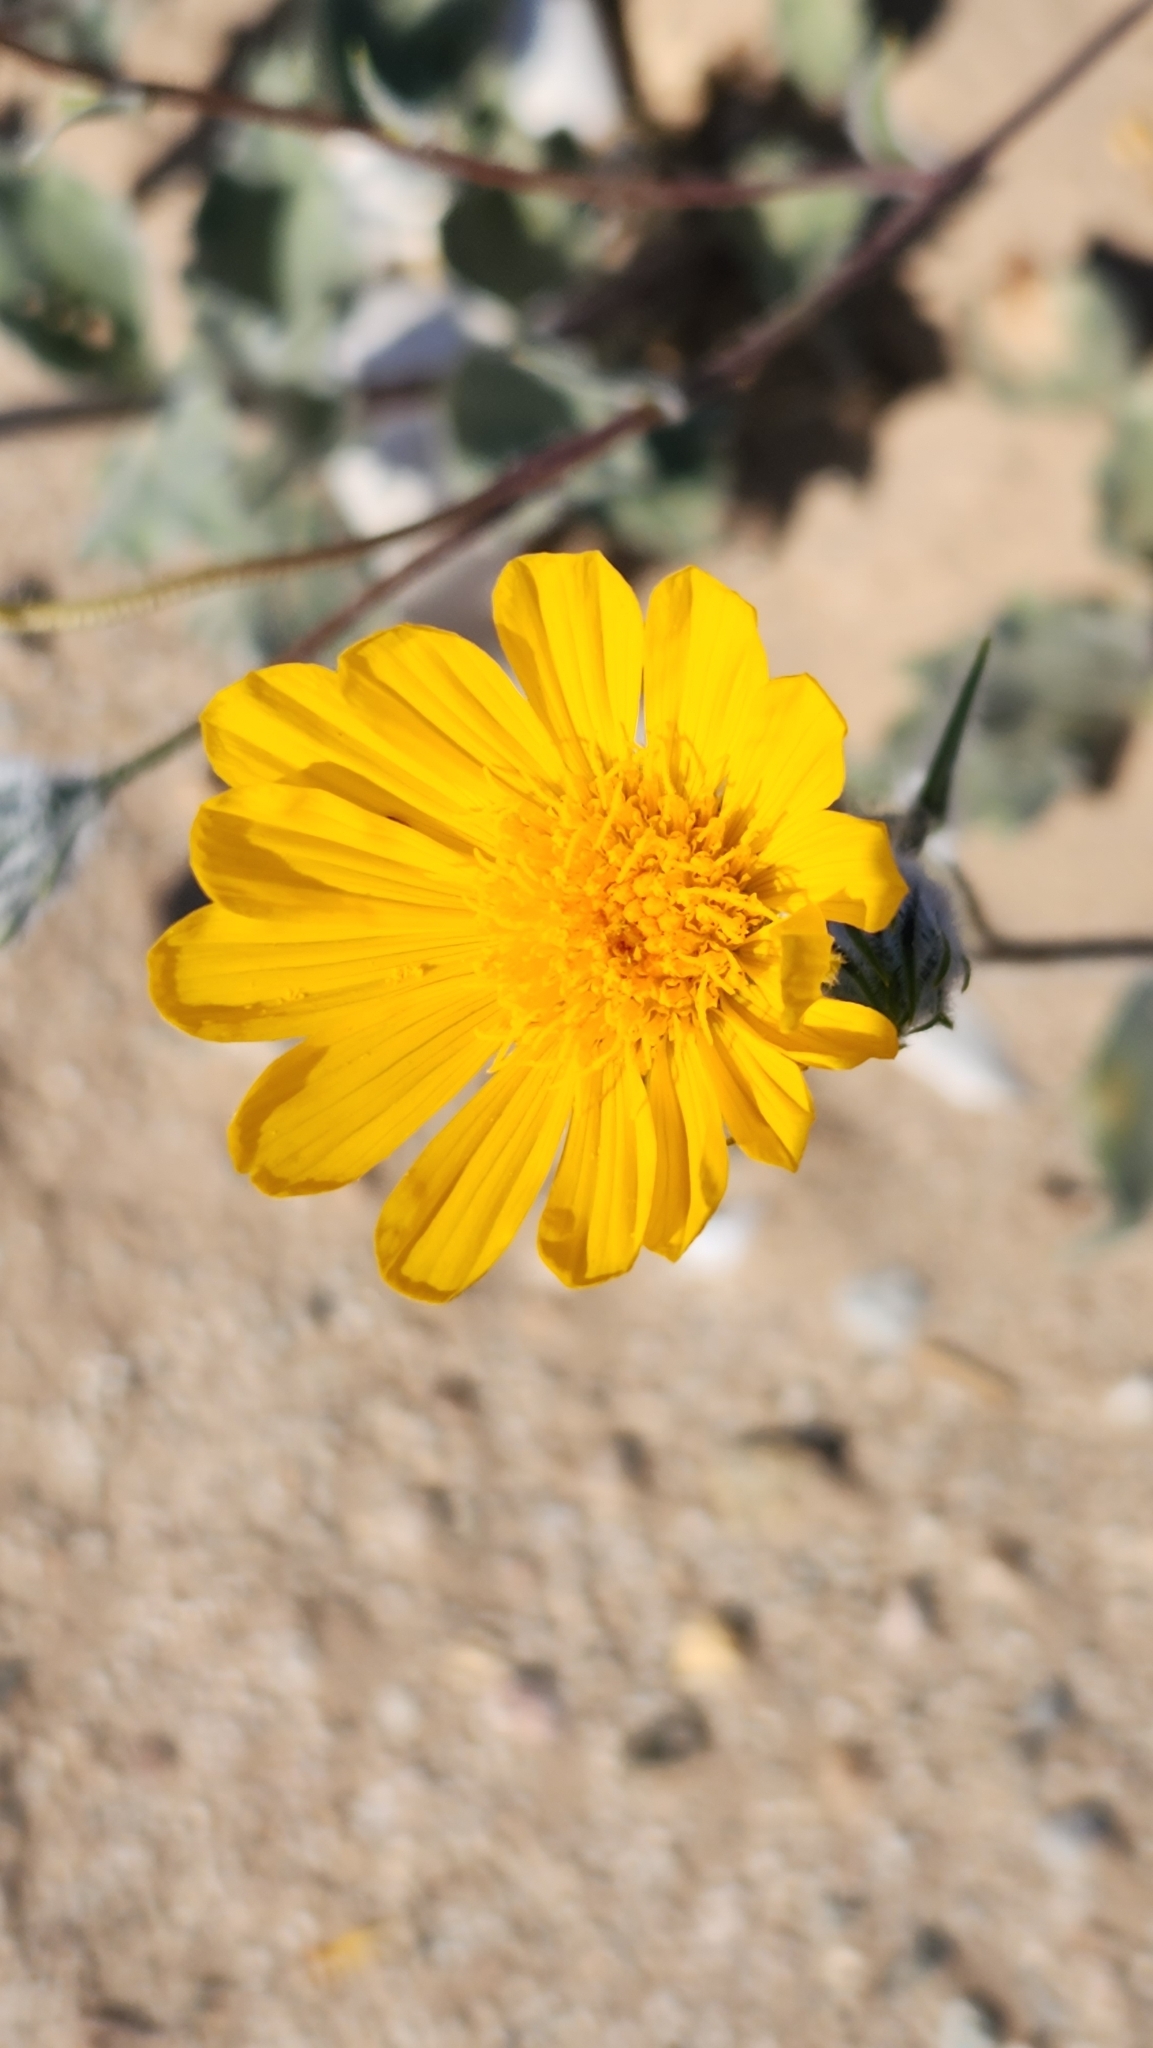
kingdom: Plantae
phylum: Tracheophyta
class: Magnoliopsida
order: Asterales
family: Asteraceae
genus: Geraea
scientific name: Geraea canescens
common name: Desert-gold
